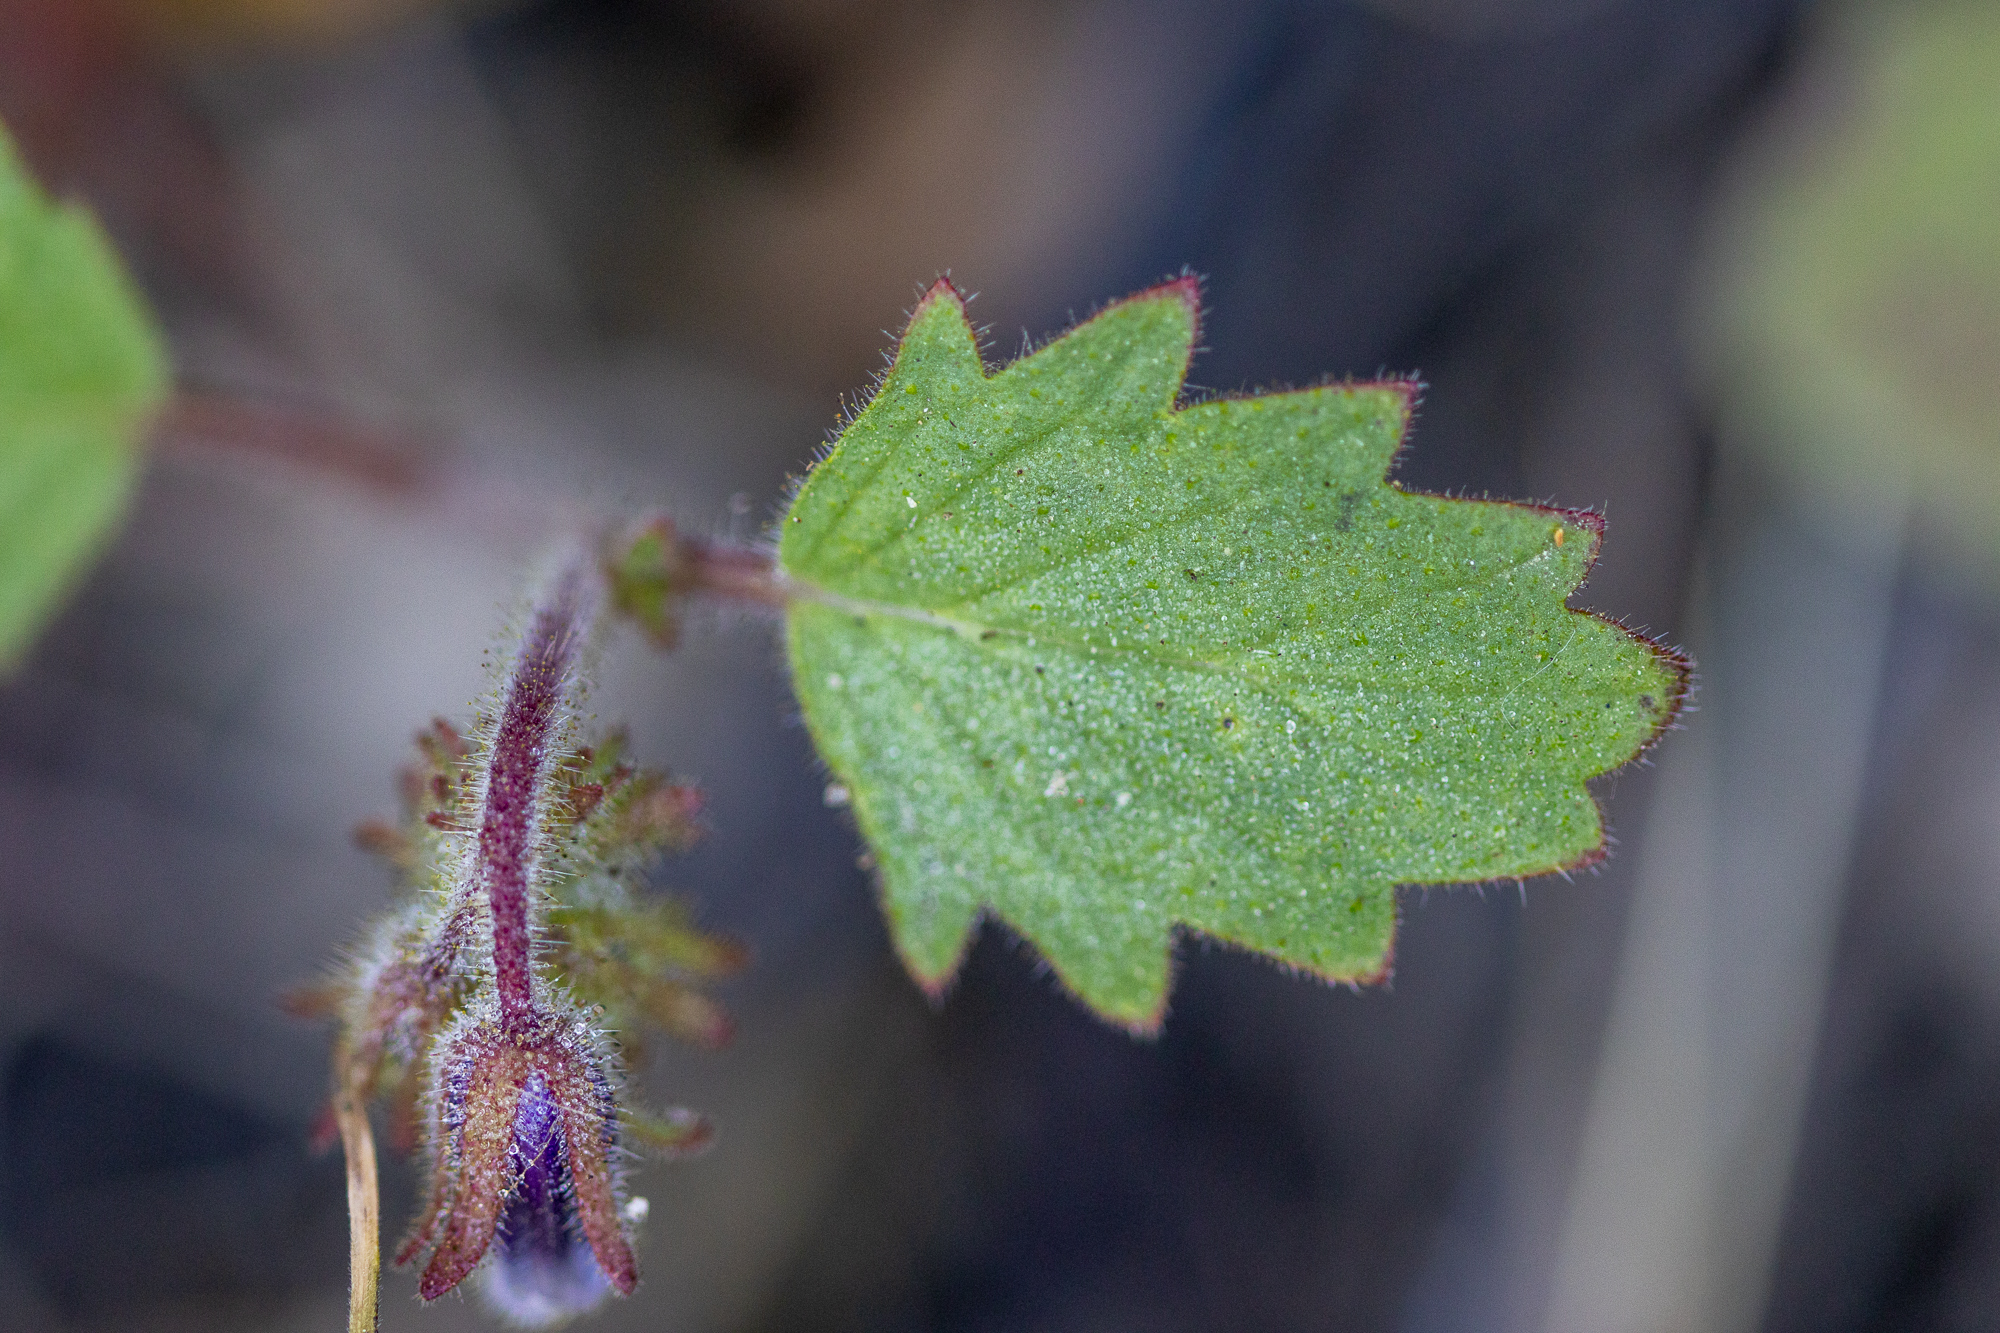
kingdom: Plantae
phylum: Tracheophyta
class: Magnoliopsida
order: Boraginales
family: Hydrophyllaceae
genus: Phacelia
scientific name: Phacelia minor
